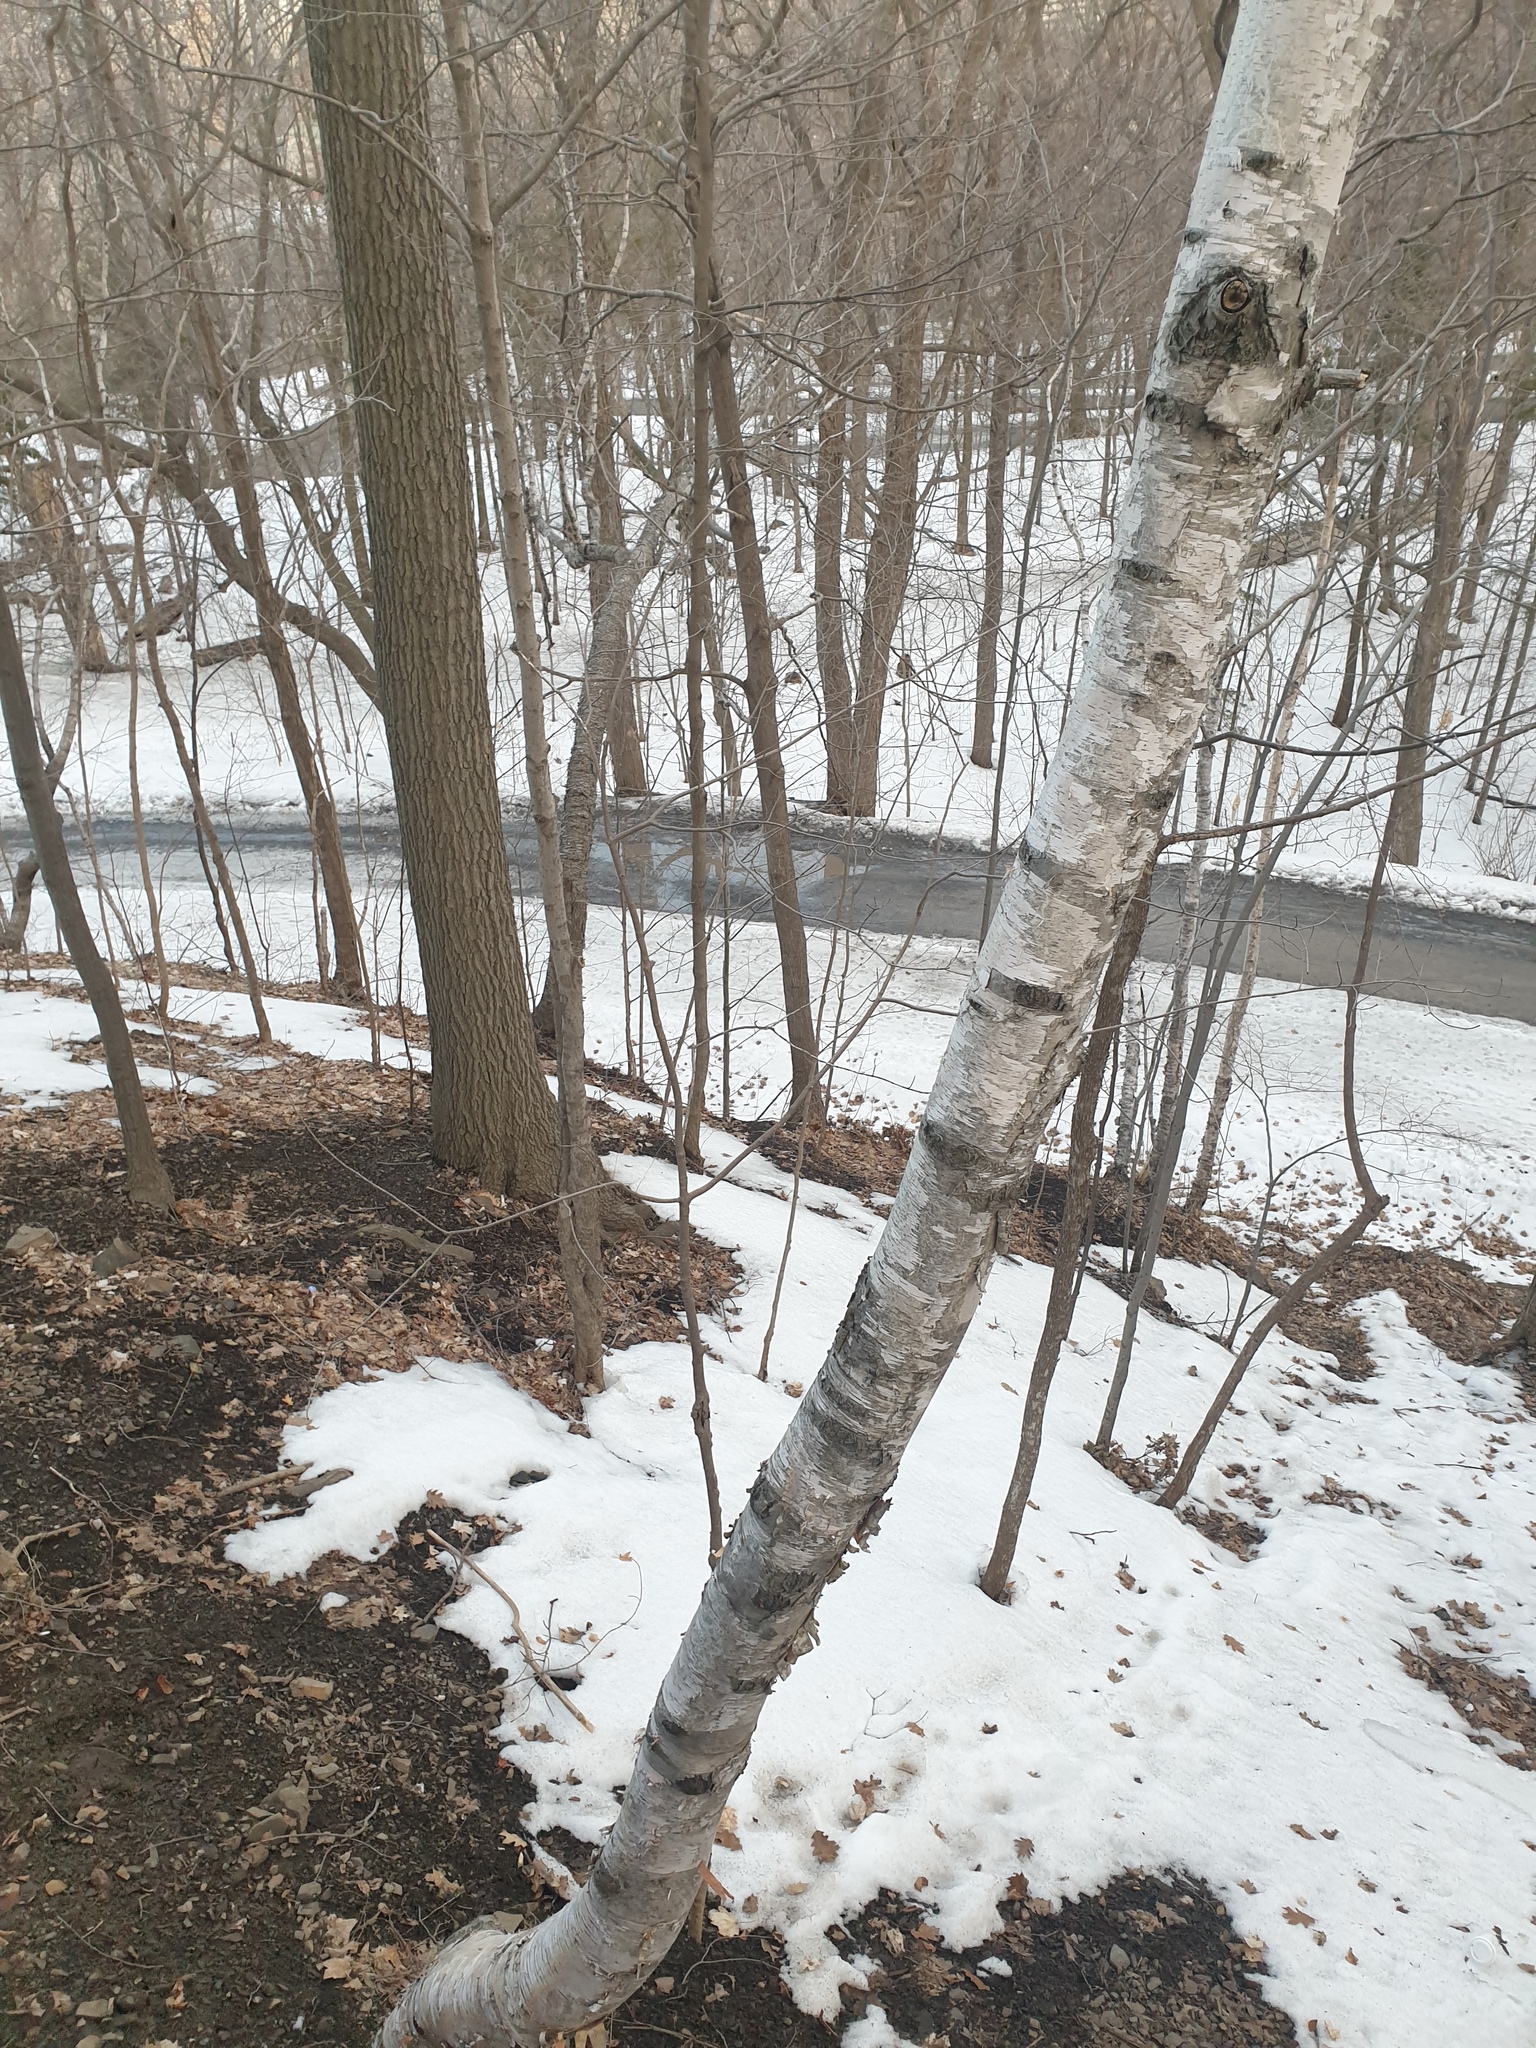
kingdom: Plantae
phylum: Tracheophyta
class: Magnoliopsida
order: Fagales
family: Betulaceae
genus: Betula
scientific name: Betula papyrifera
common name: Paper birch
